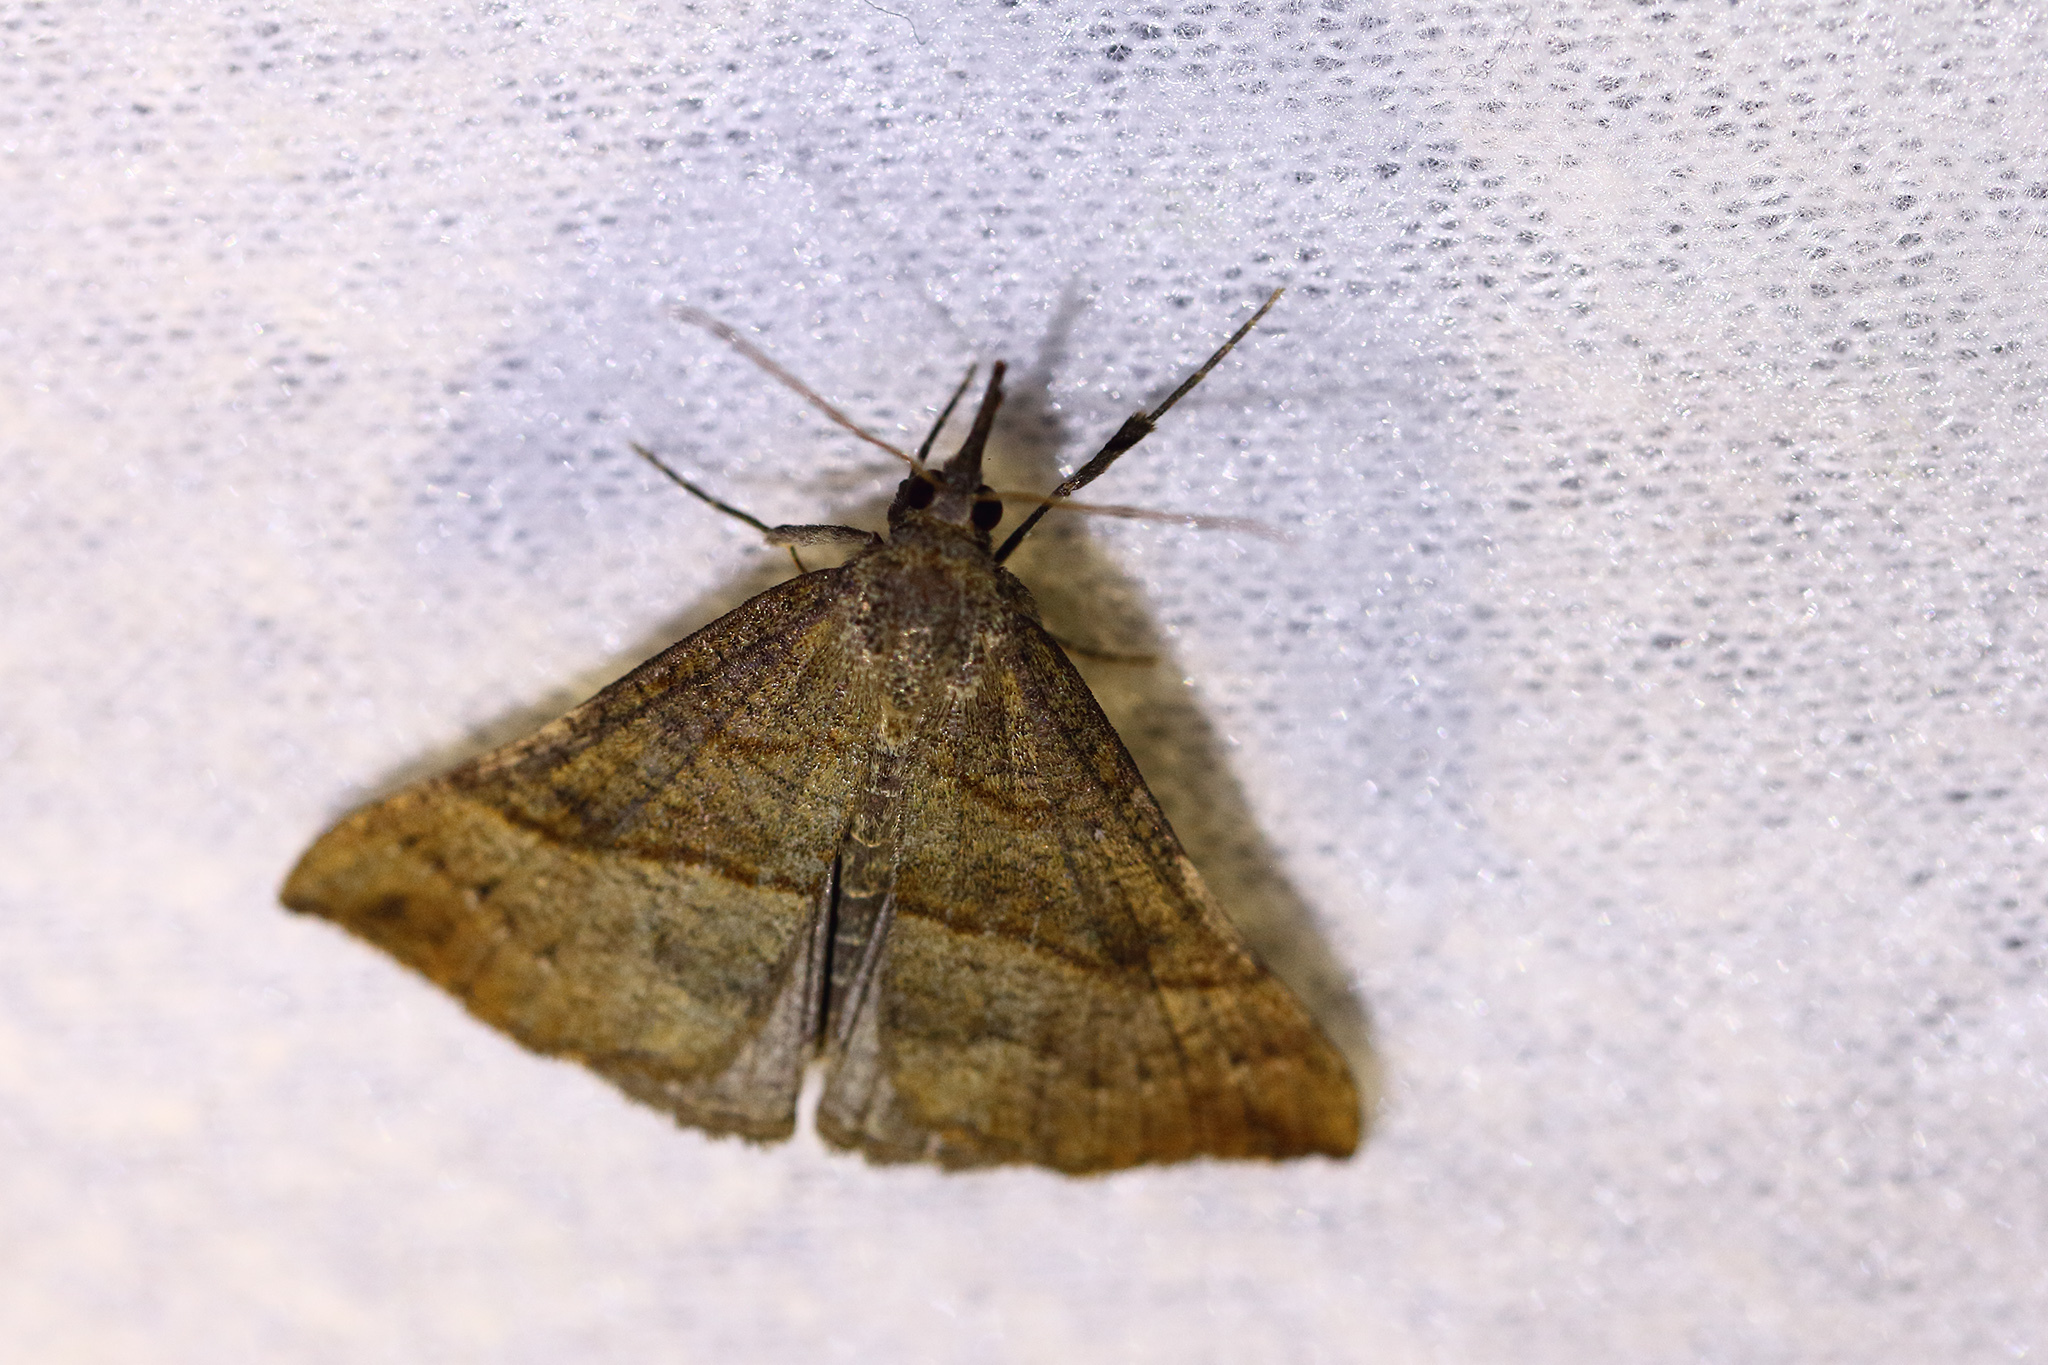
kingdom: Animalia
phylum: Arthropoda
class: Insecta
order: Lepidoptera
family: Erebidae
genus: Hypena
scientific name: Hypena proboscidalis
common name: Snout
